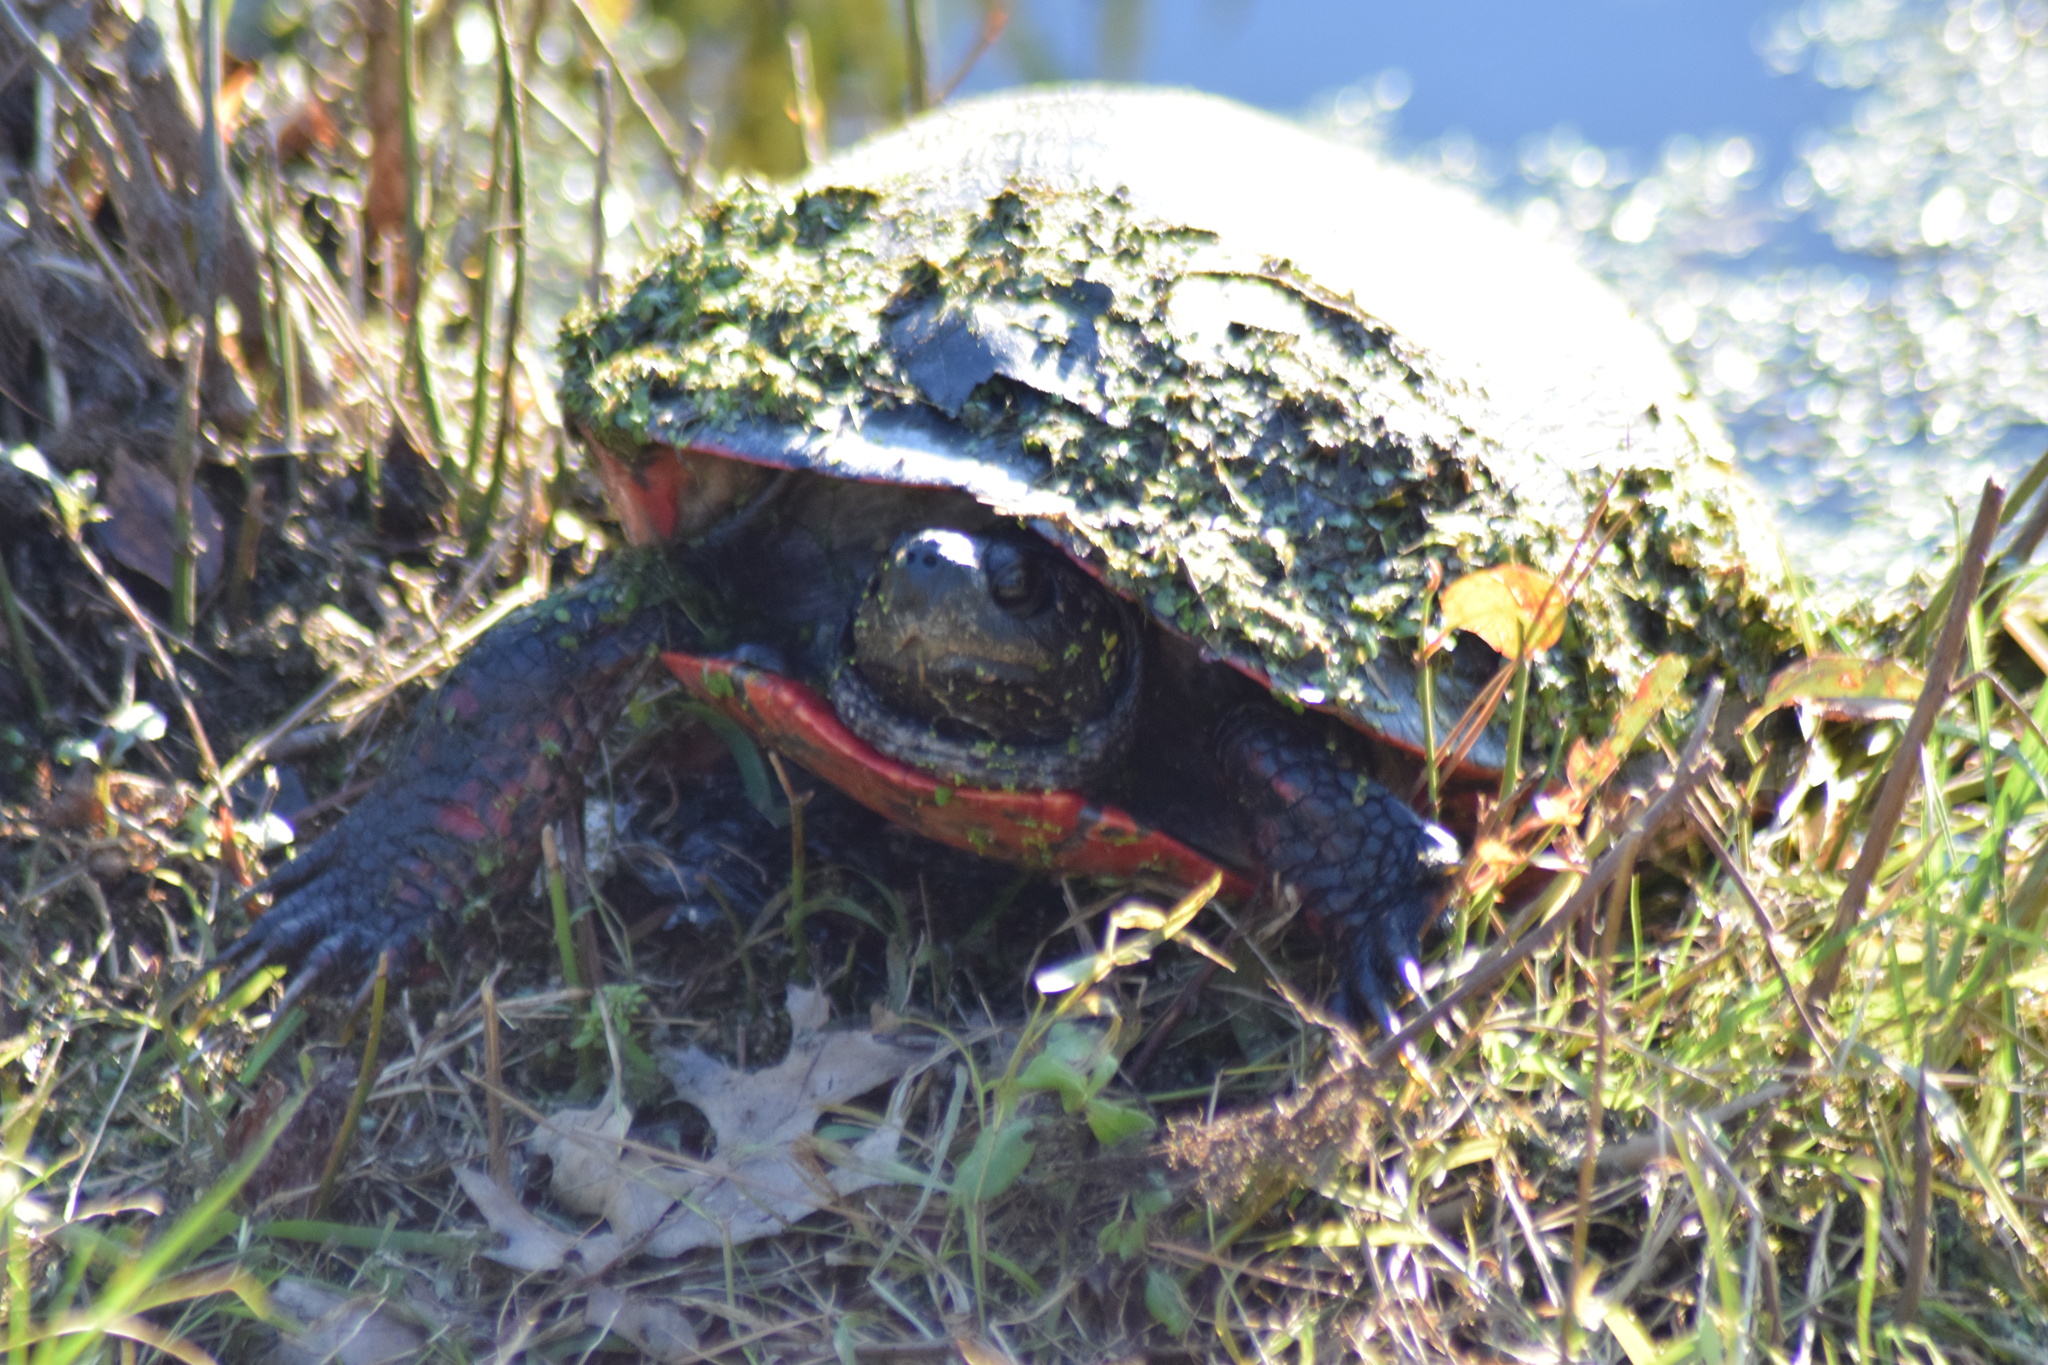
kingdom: Animalia
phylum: Chordata
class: Testudines
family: Emydidae
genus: Pseudemys
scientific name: Pseudemys rubriventris
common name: American red-bellied turtle
